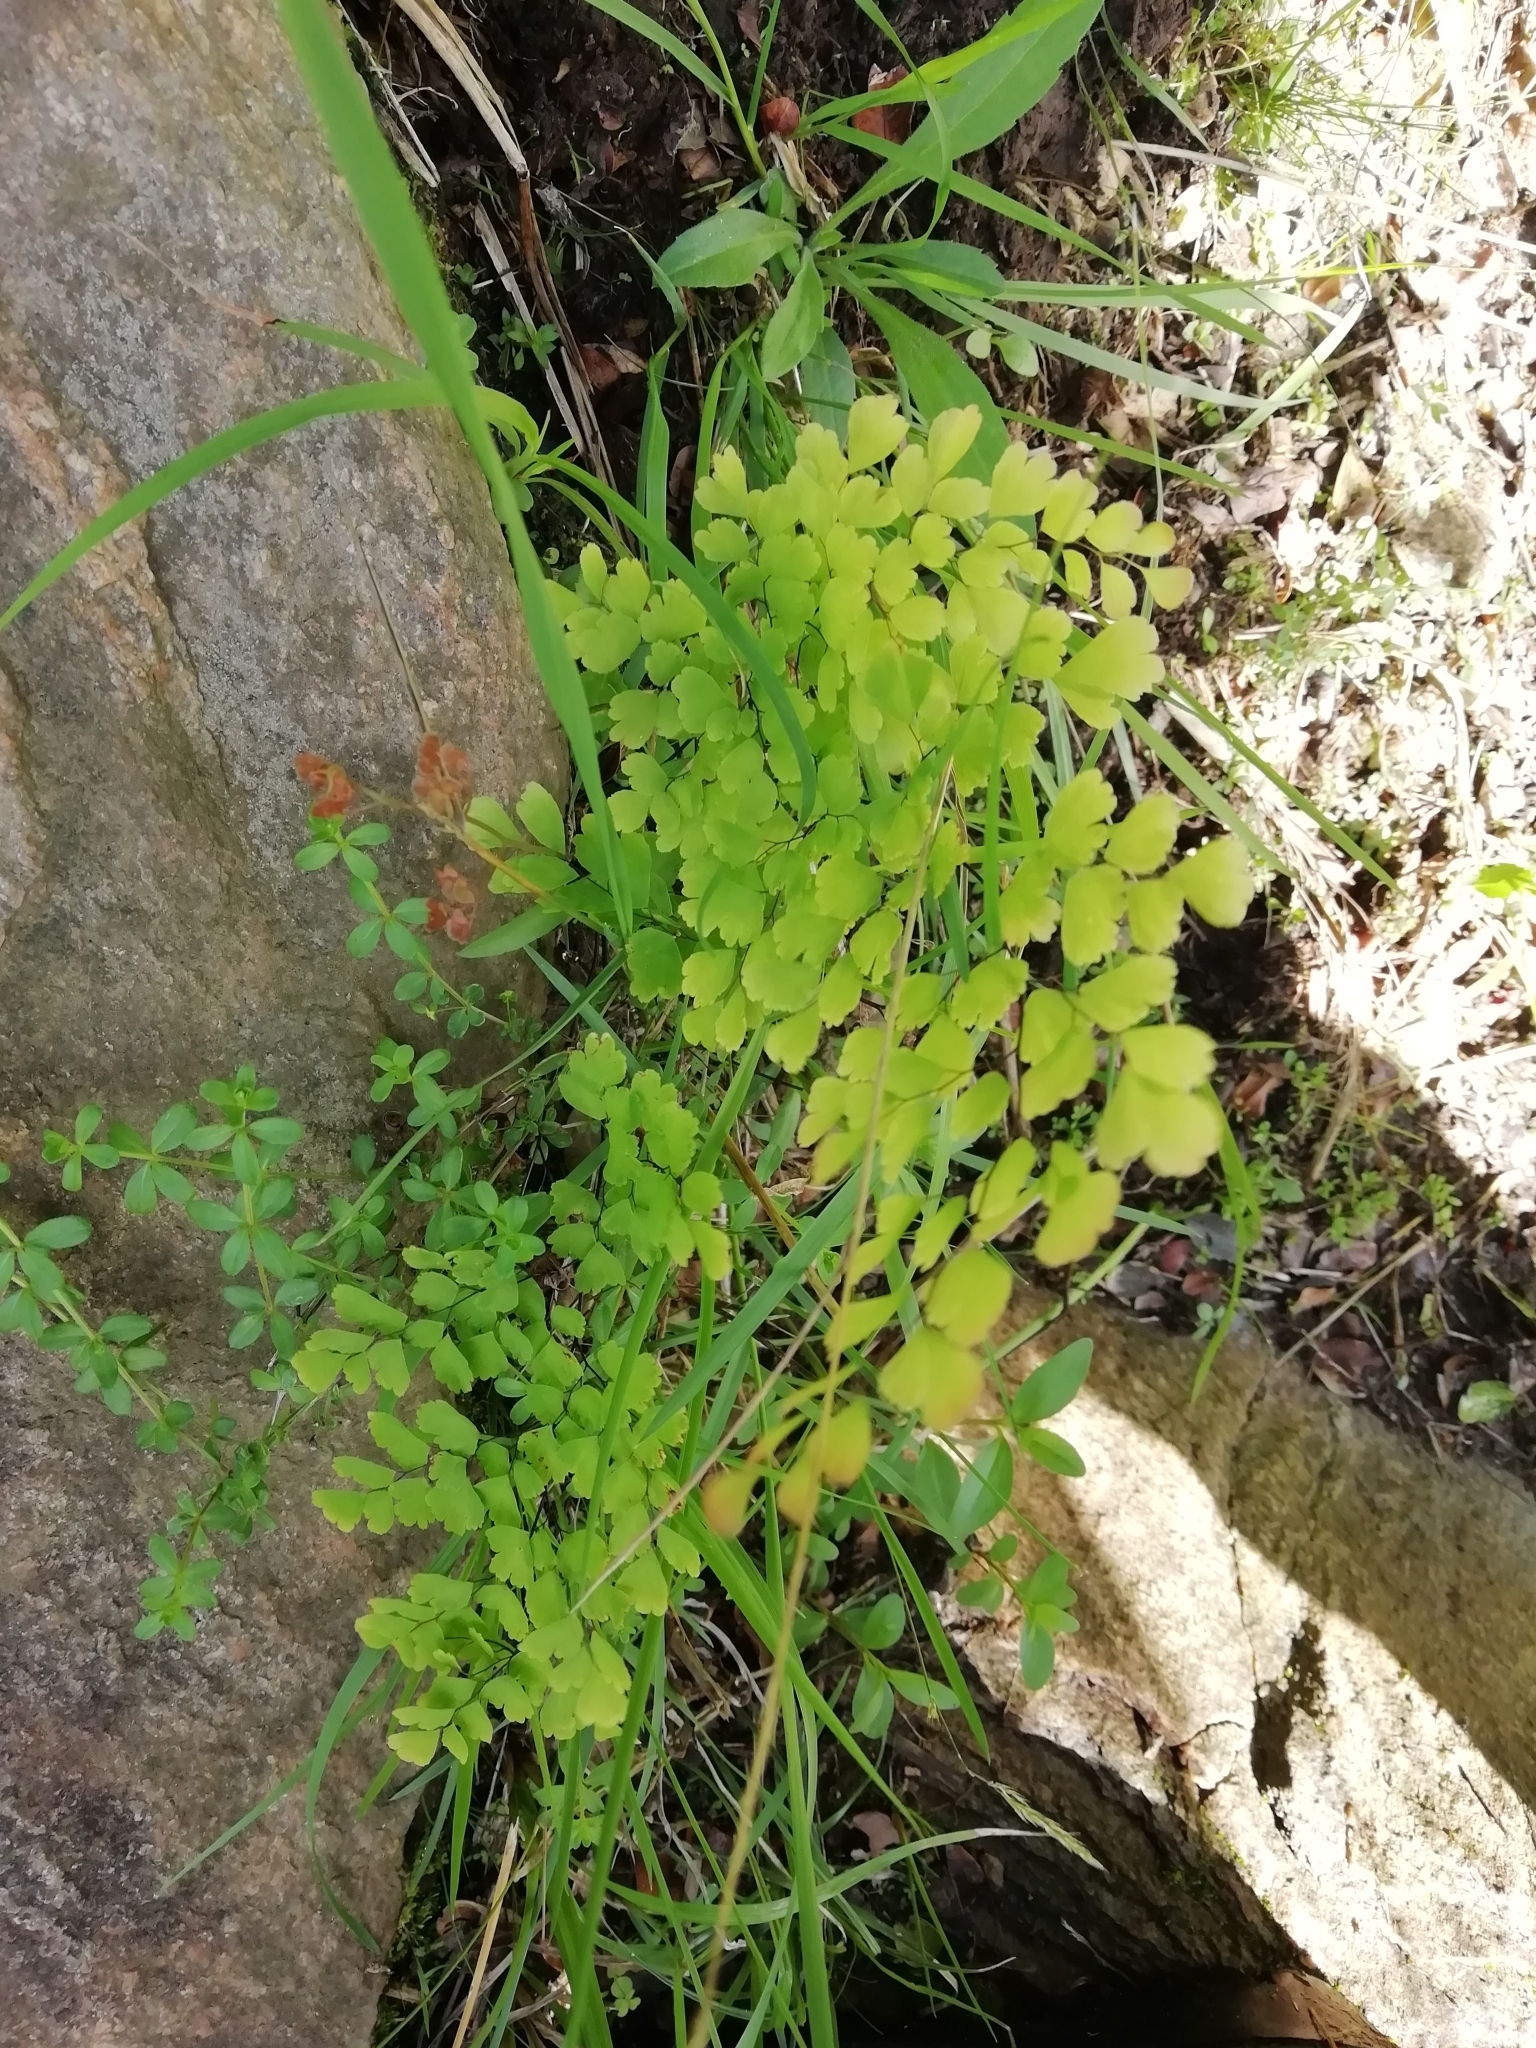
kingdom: Plantae
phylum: Tracheophyta
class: Polypodiopsida
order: Polypodiales
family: Pteridaceae
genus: Adiantum
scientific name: Adiantum raddianum
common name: Delta maidenhair fern
